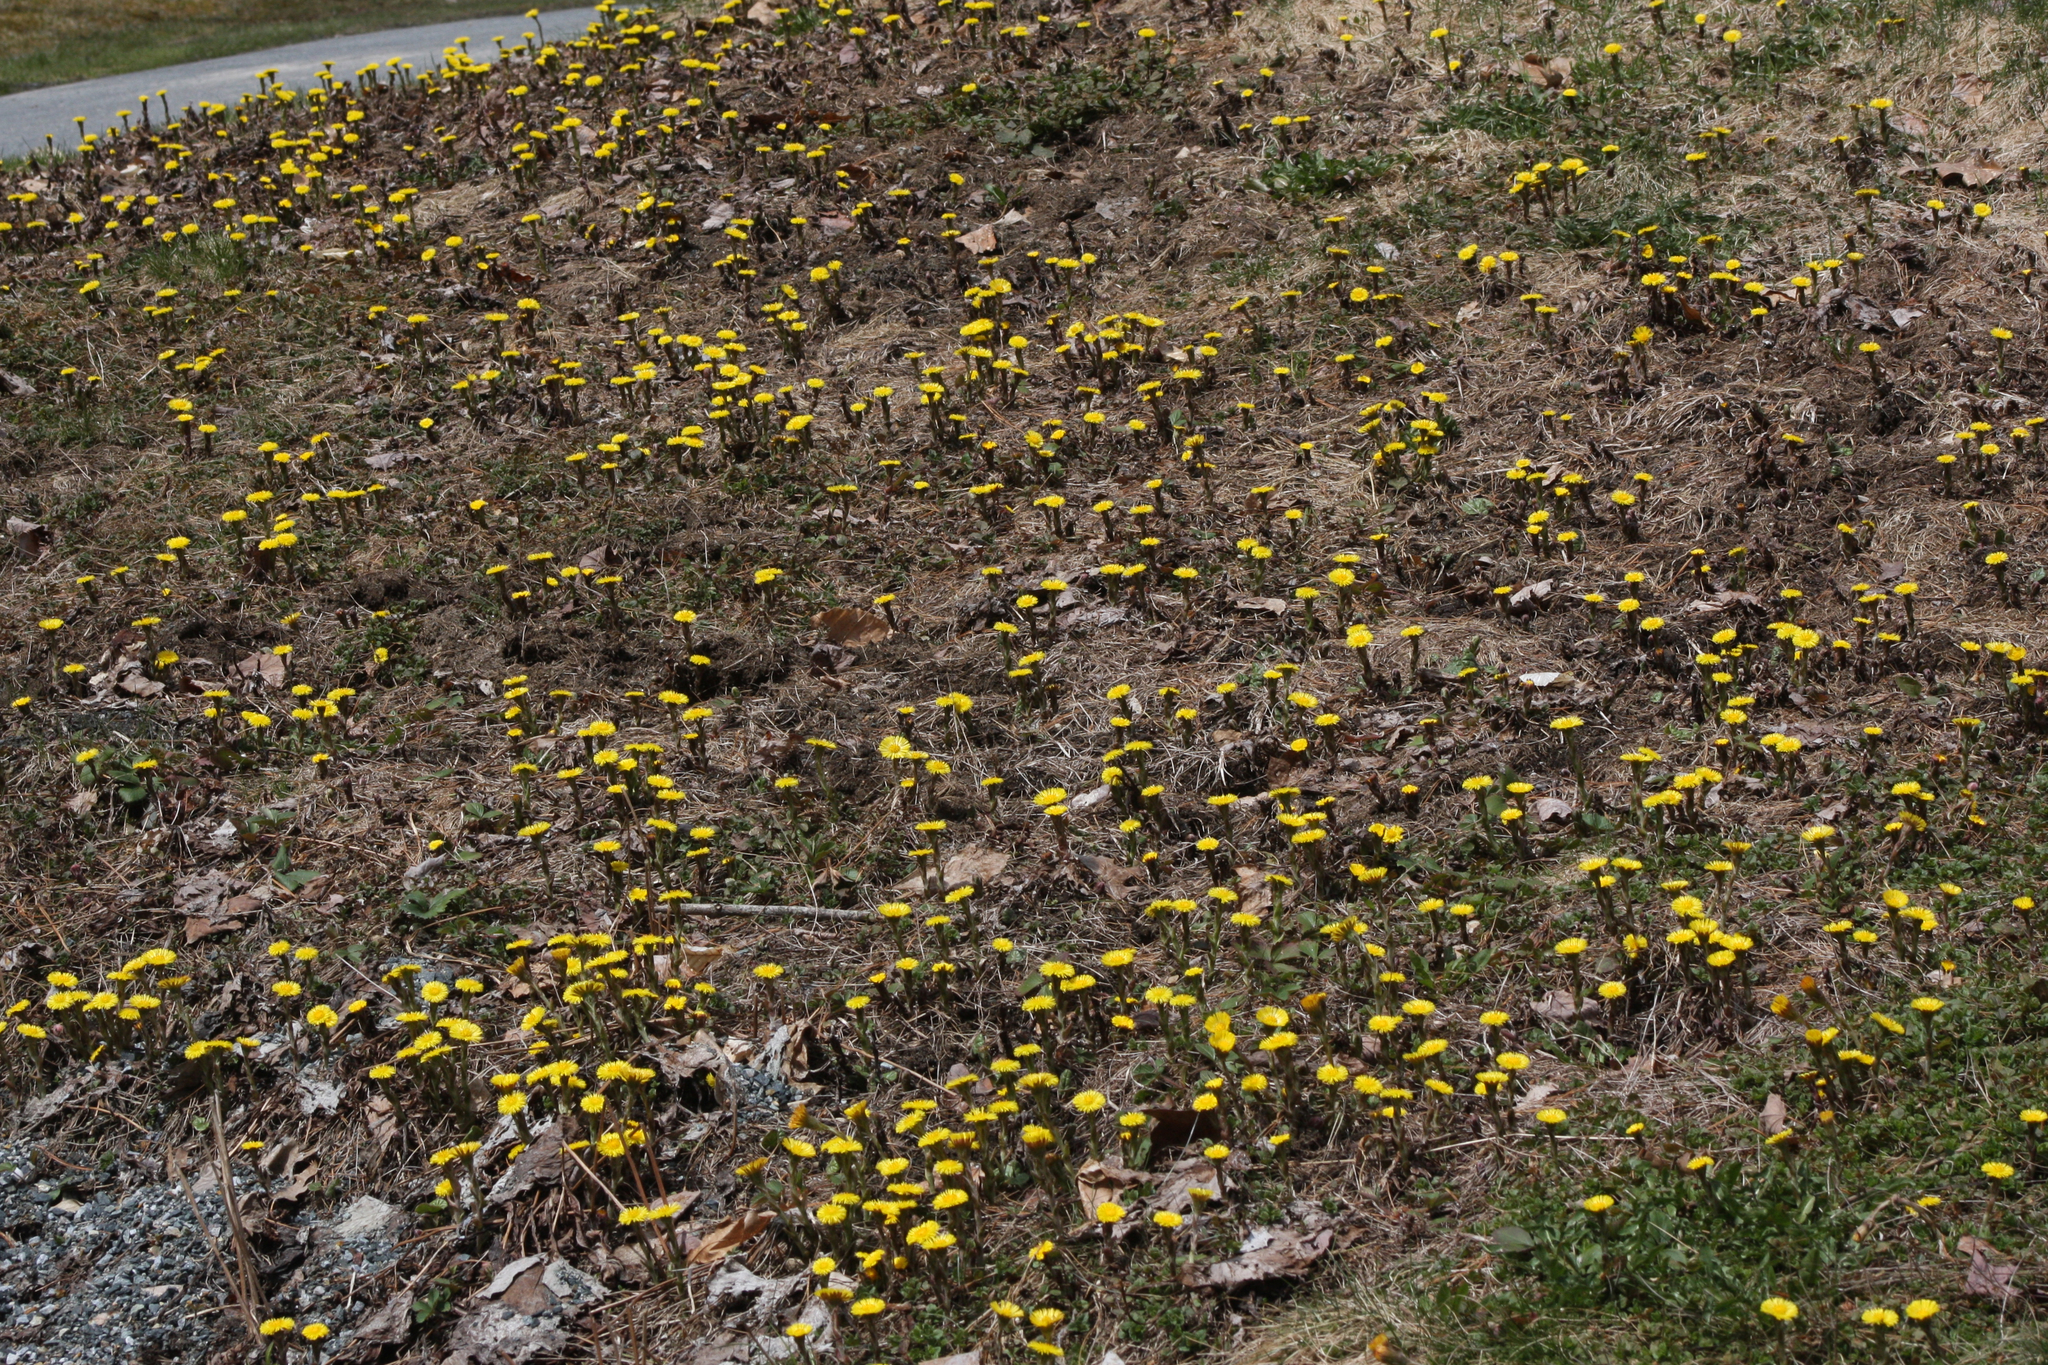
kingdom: Plantae
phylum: Tracheophyta
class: Magnoliopsida
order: Asterales
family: Asteraceae
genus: Tussilago
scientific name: Tussilago farfara
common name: Coltsfoot
